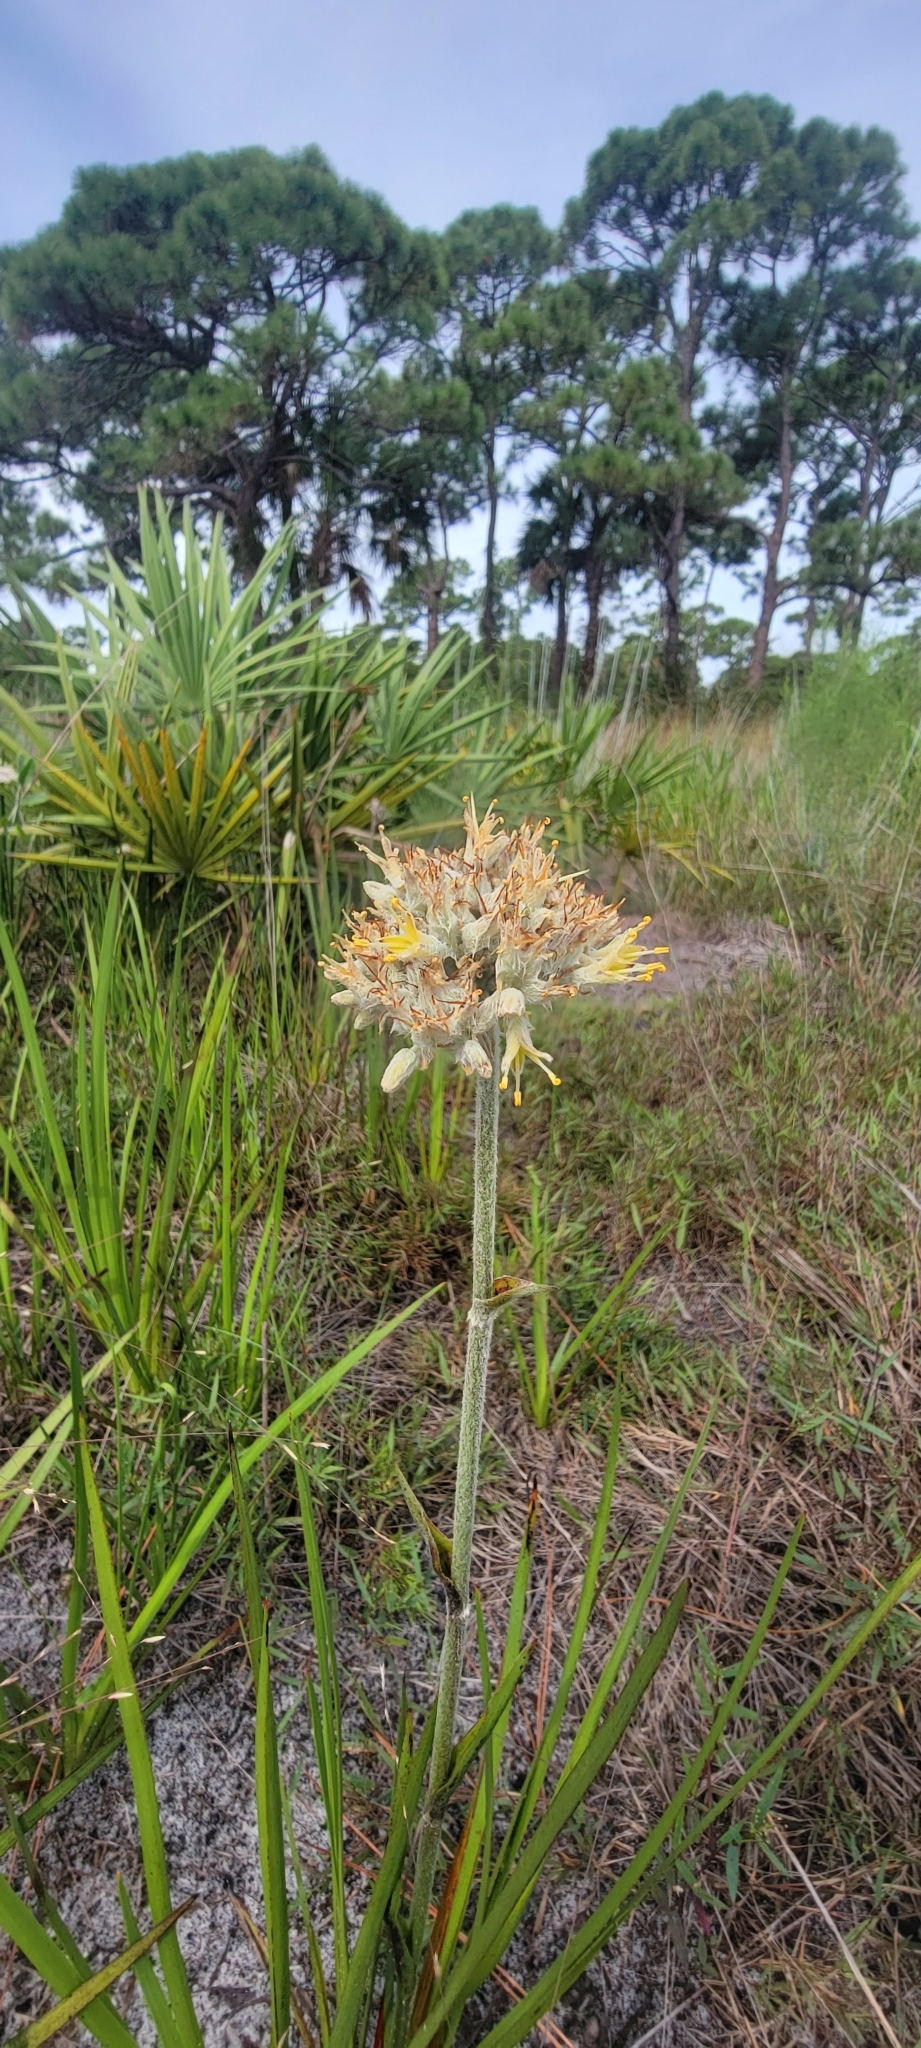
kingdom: Plantae
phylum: Tracheophyta
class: Liliopsida
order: Commelinales
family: Haemodoraceae
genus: Lachnanthes
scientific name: Lachnanthes caroliana
